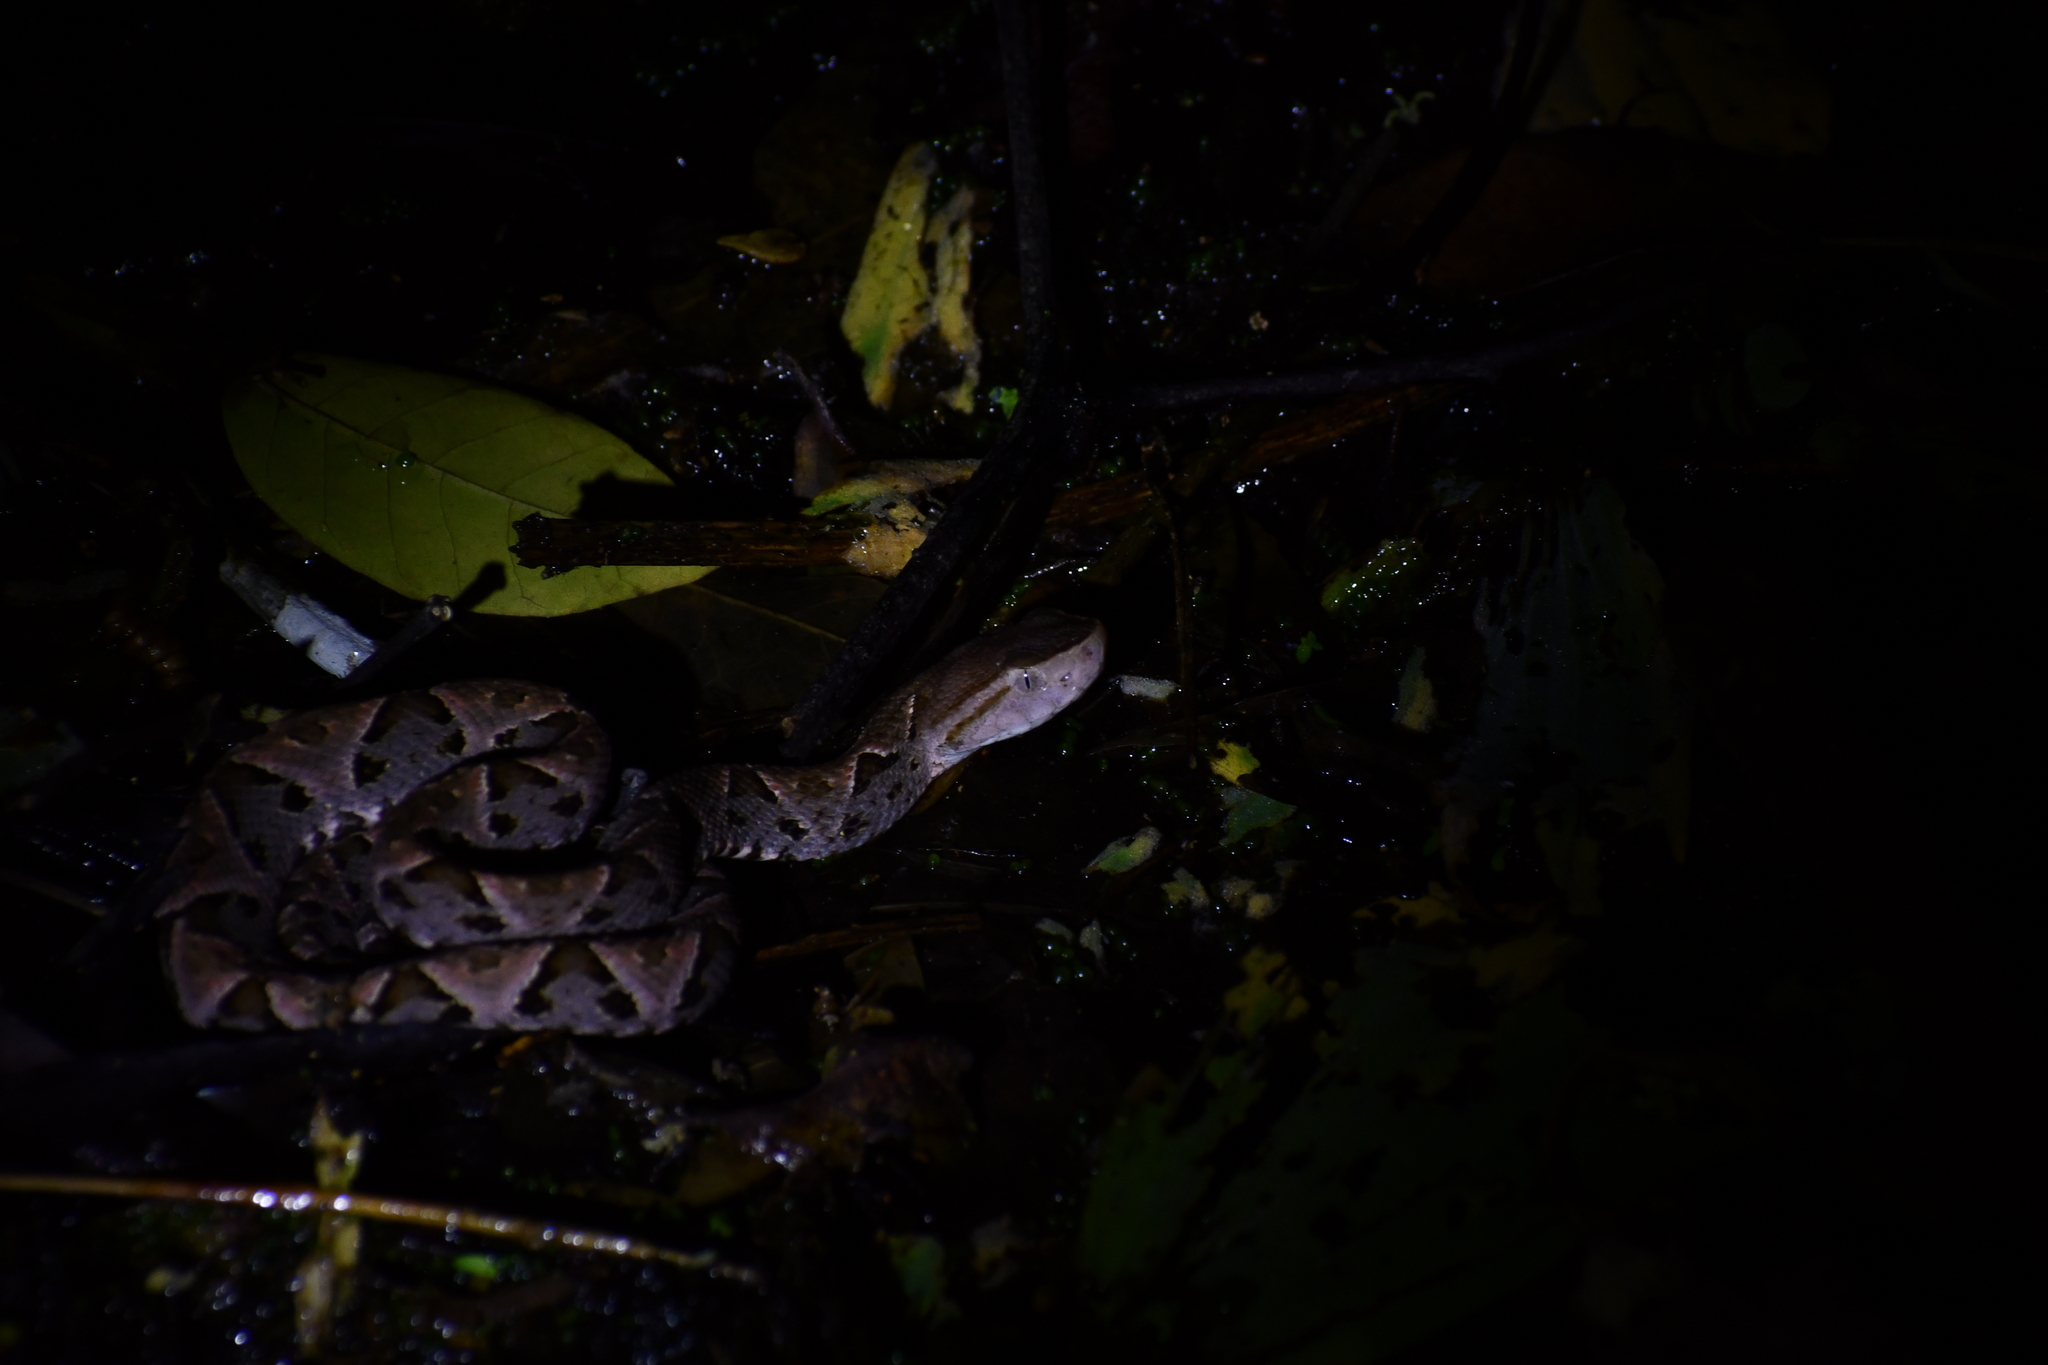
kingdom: Animalia
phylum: Chordata
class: Squamata
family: Viperidae
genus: Bothrops
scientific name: Bothrops asper
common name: Terciopelo
